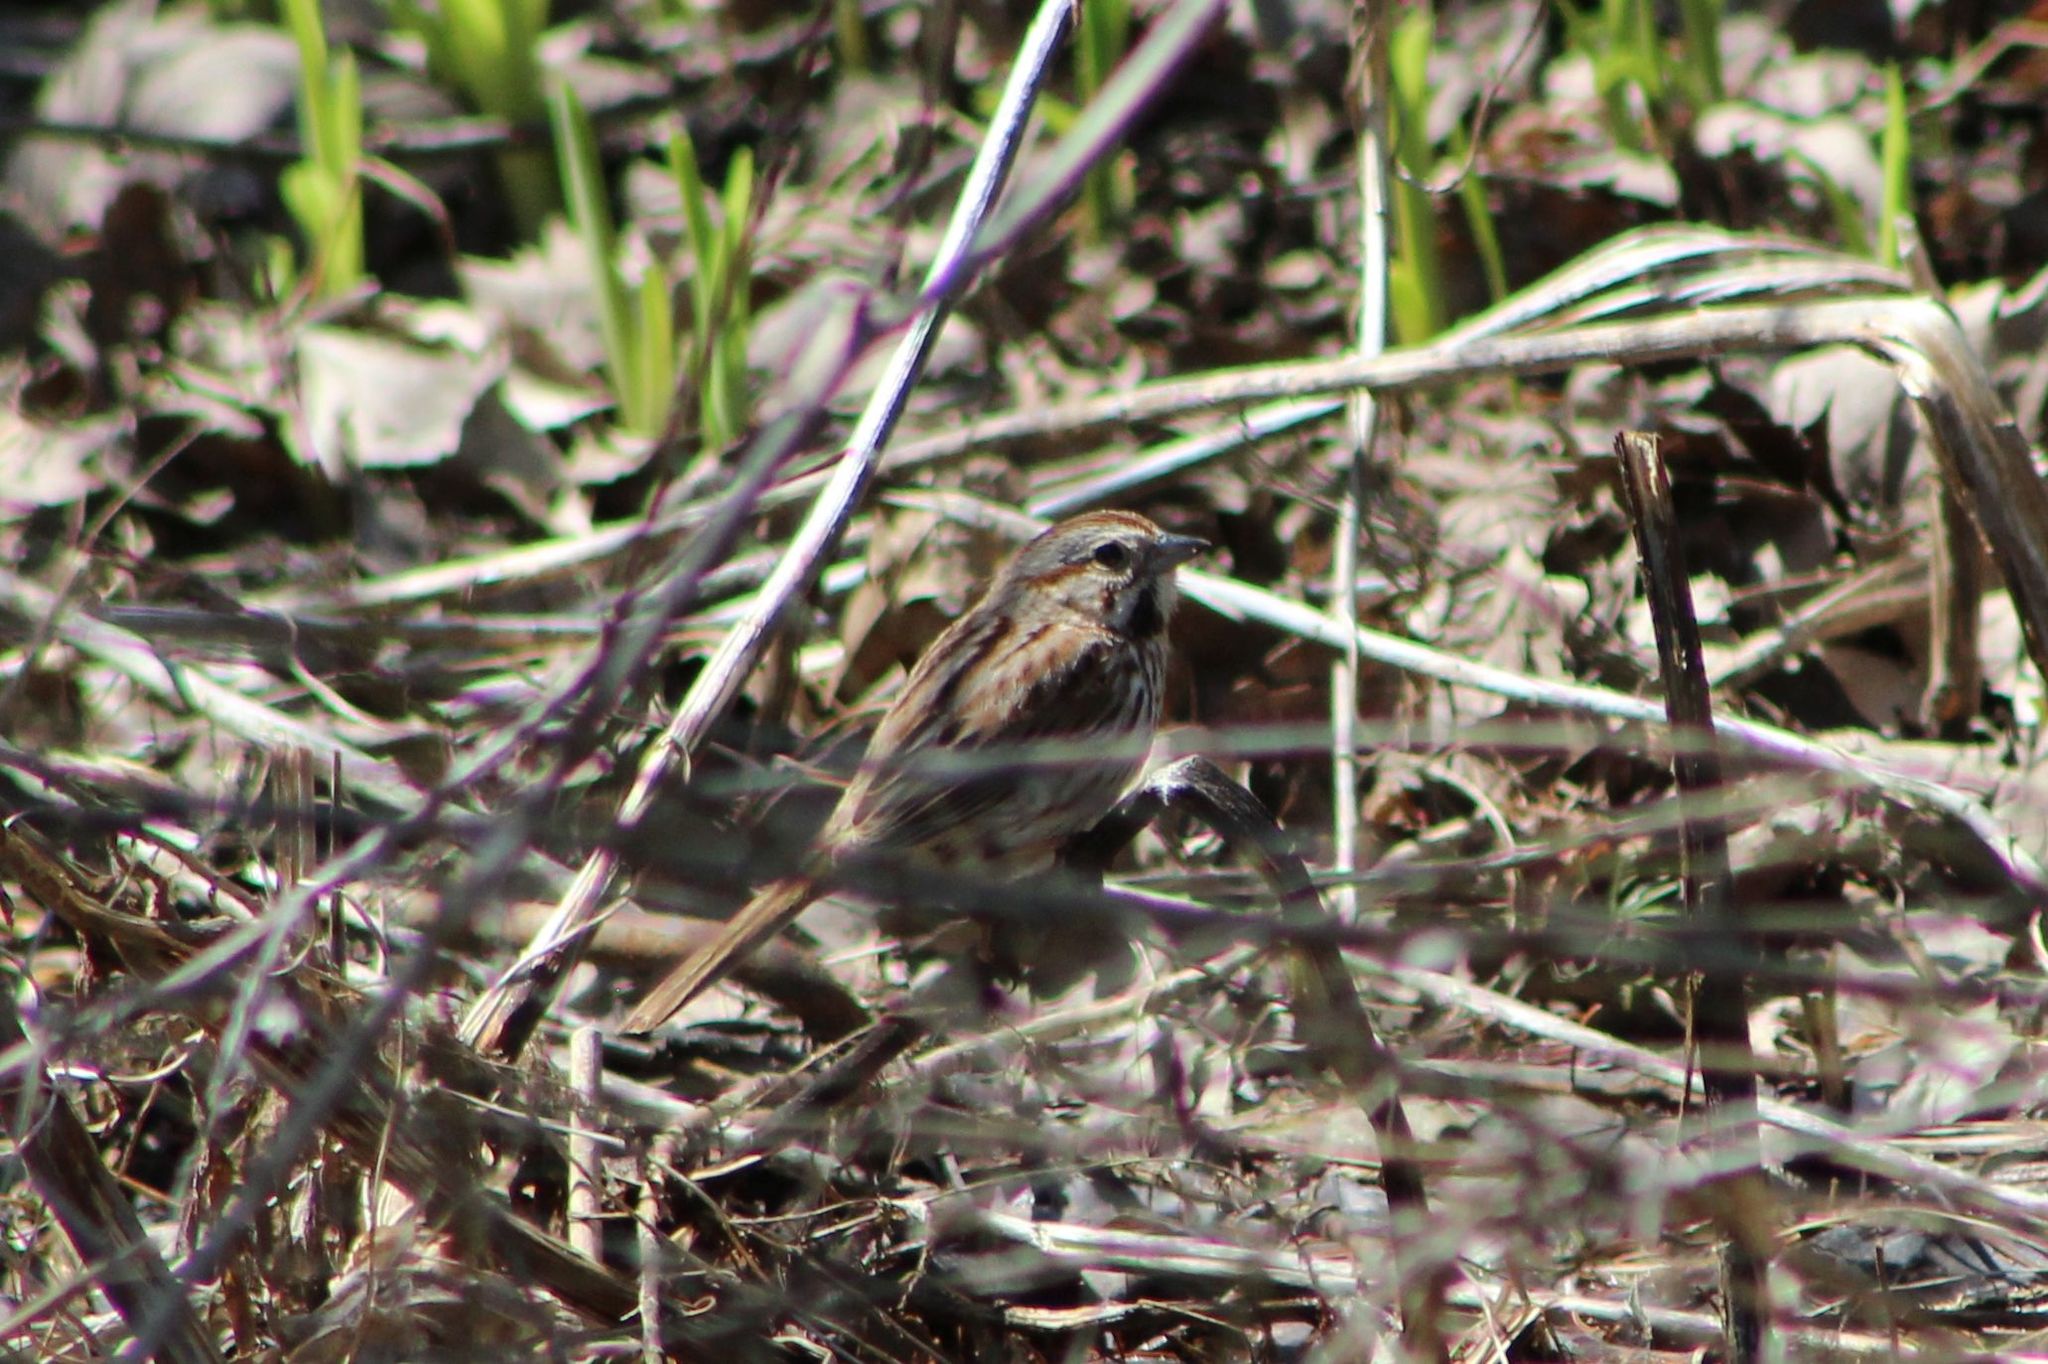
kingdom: Animalia
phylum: Chordata
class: Aves
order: Passeriformes
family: Passerellidae
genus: Melospiza
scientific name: Melospiza melodia
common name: Song sparrow
